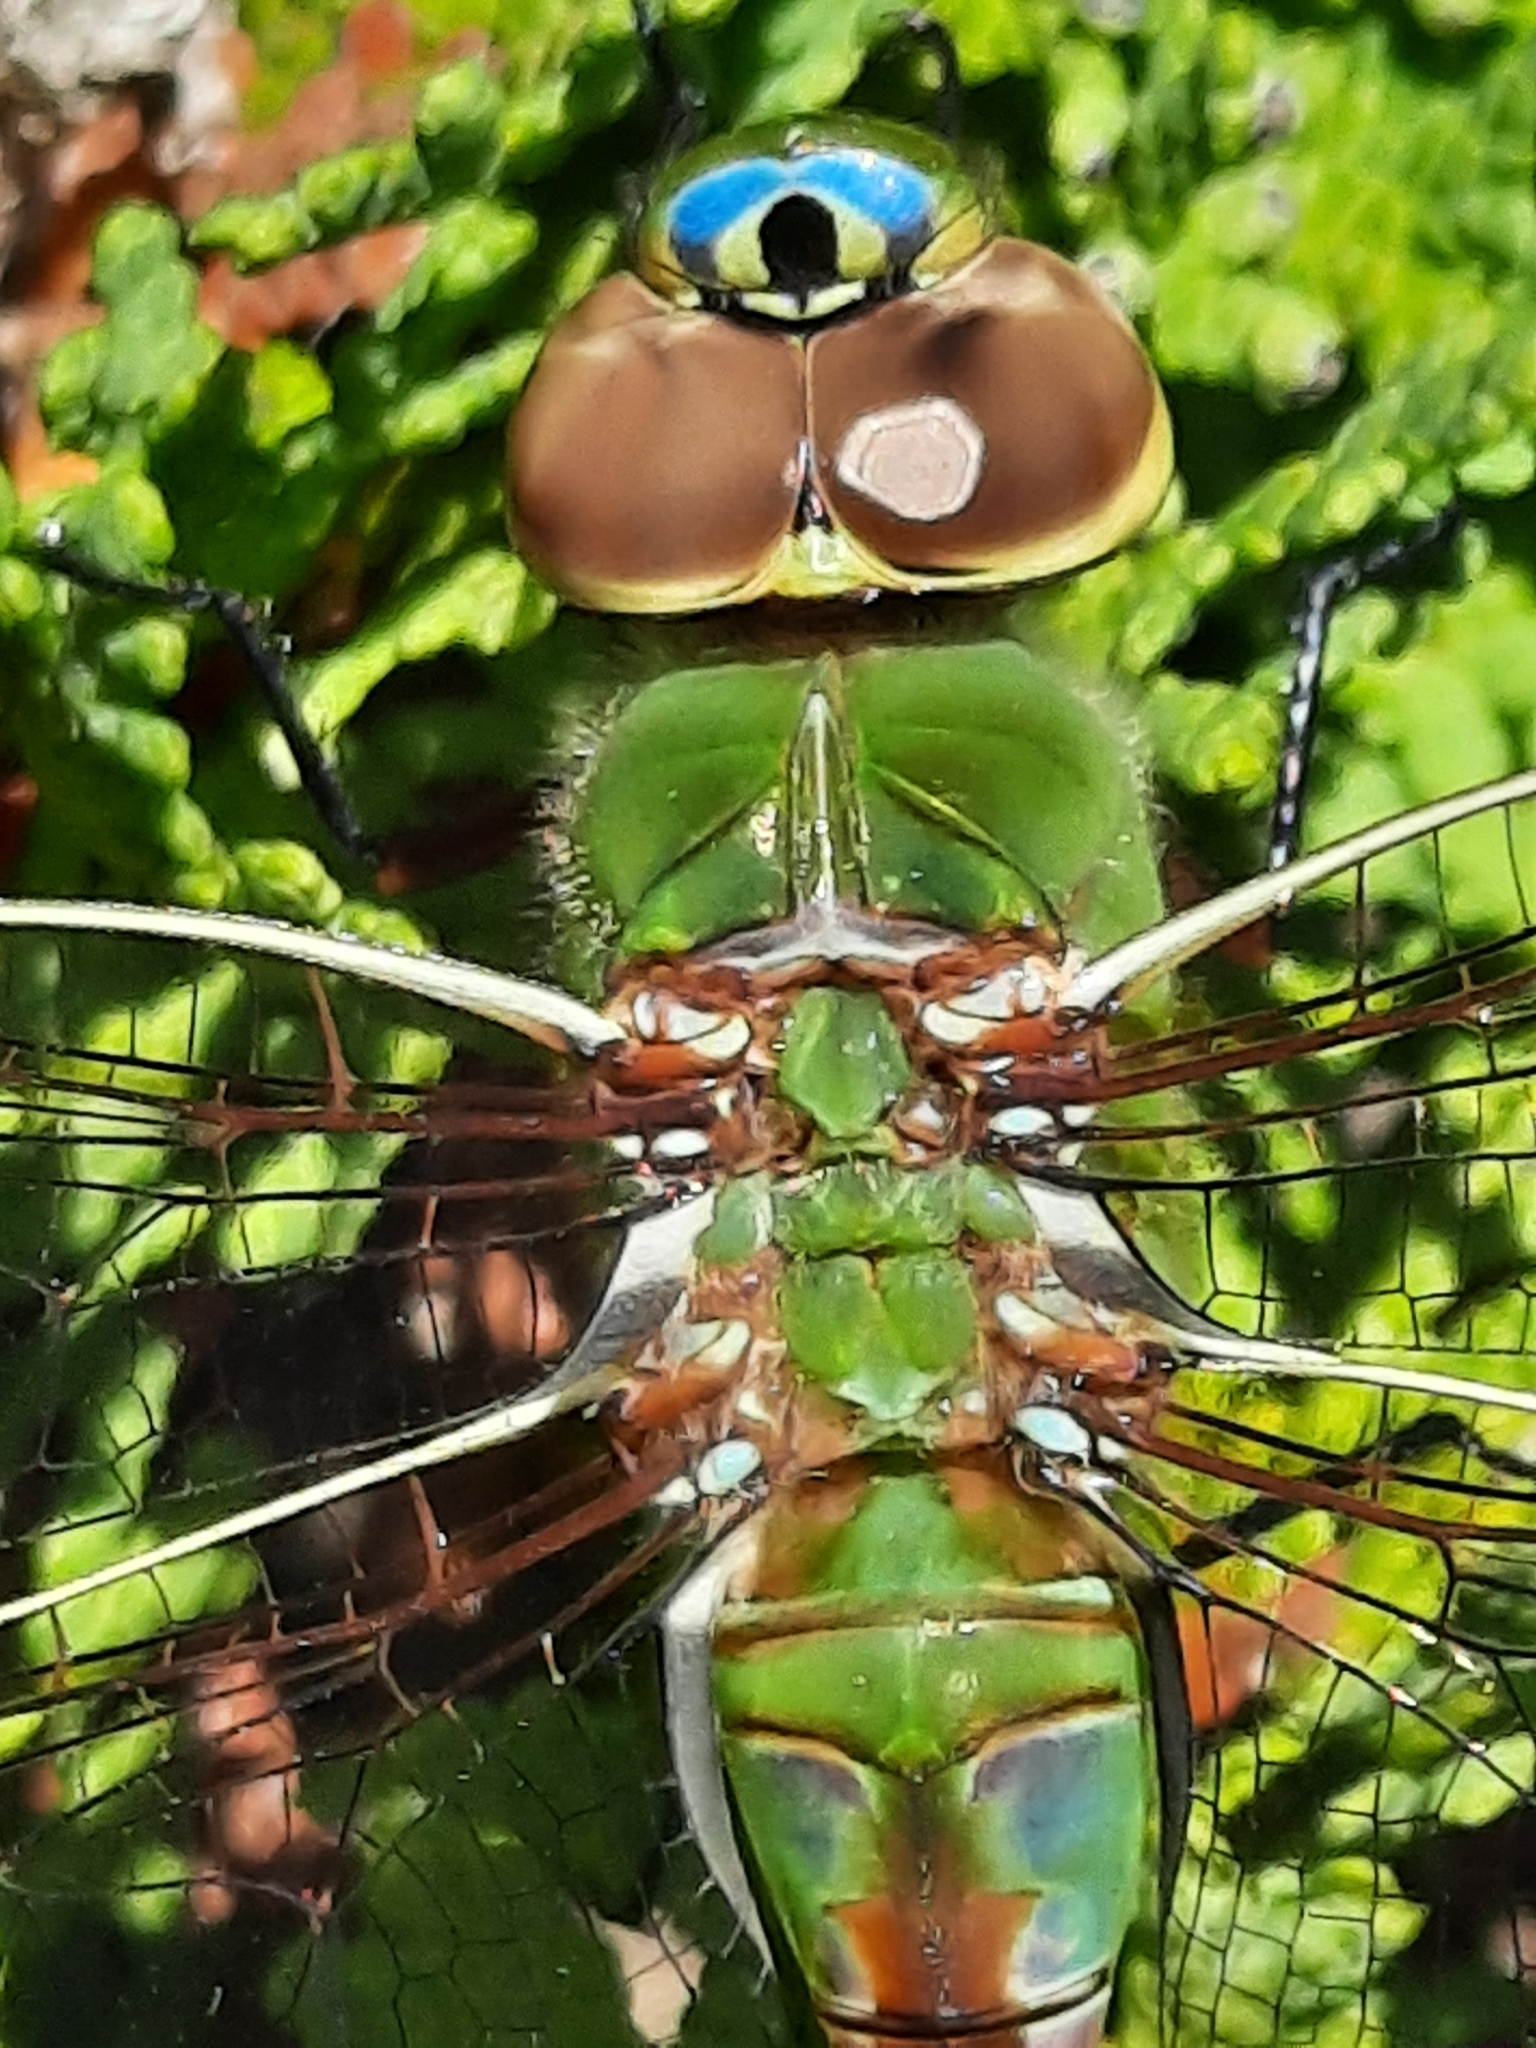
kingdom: Animalia
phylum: Arthropoda
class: Insecta
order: Odonata
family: Aeshnidae
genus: Anax
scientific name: Anax junius
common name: Common green darner
